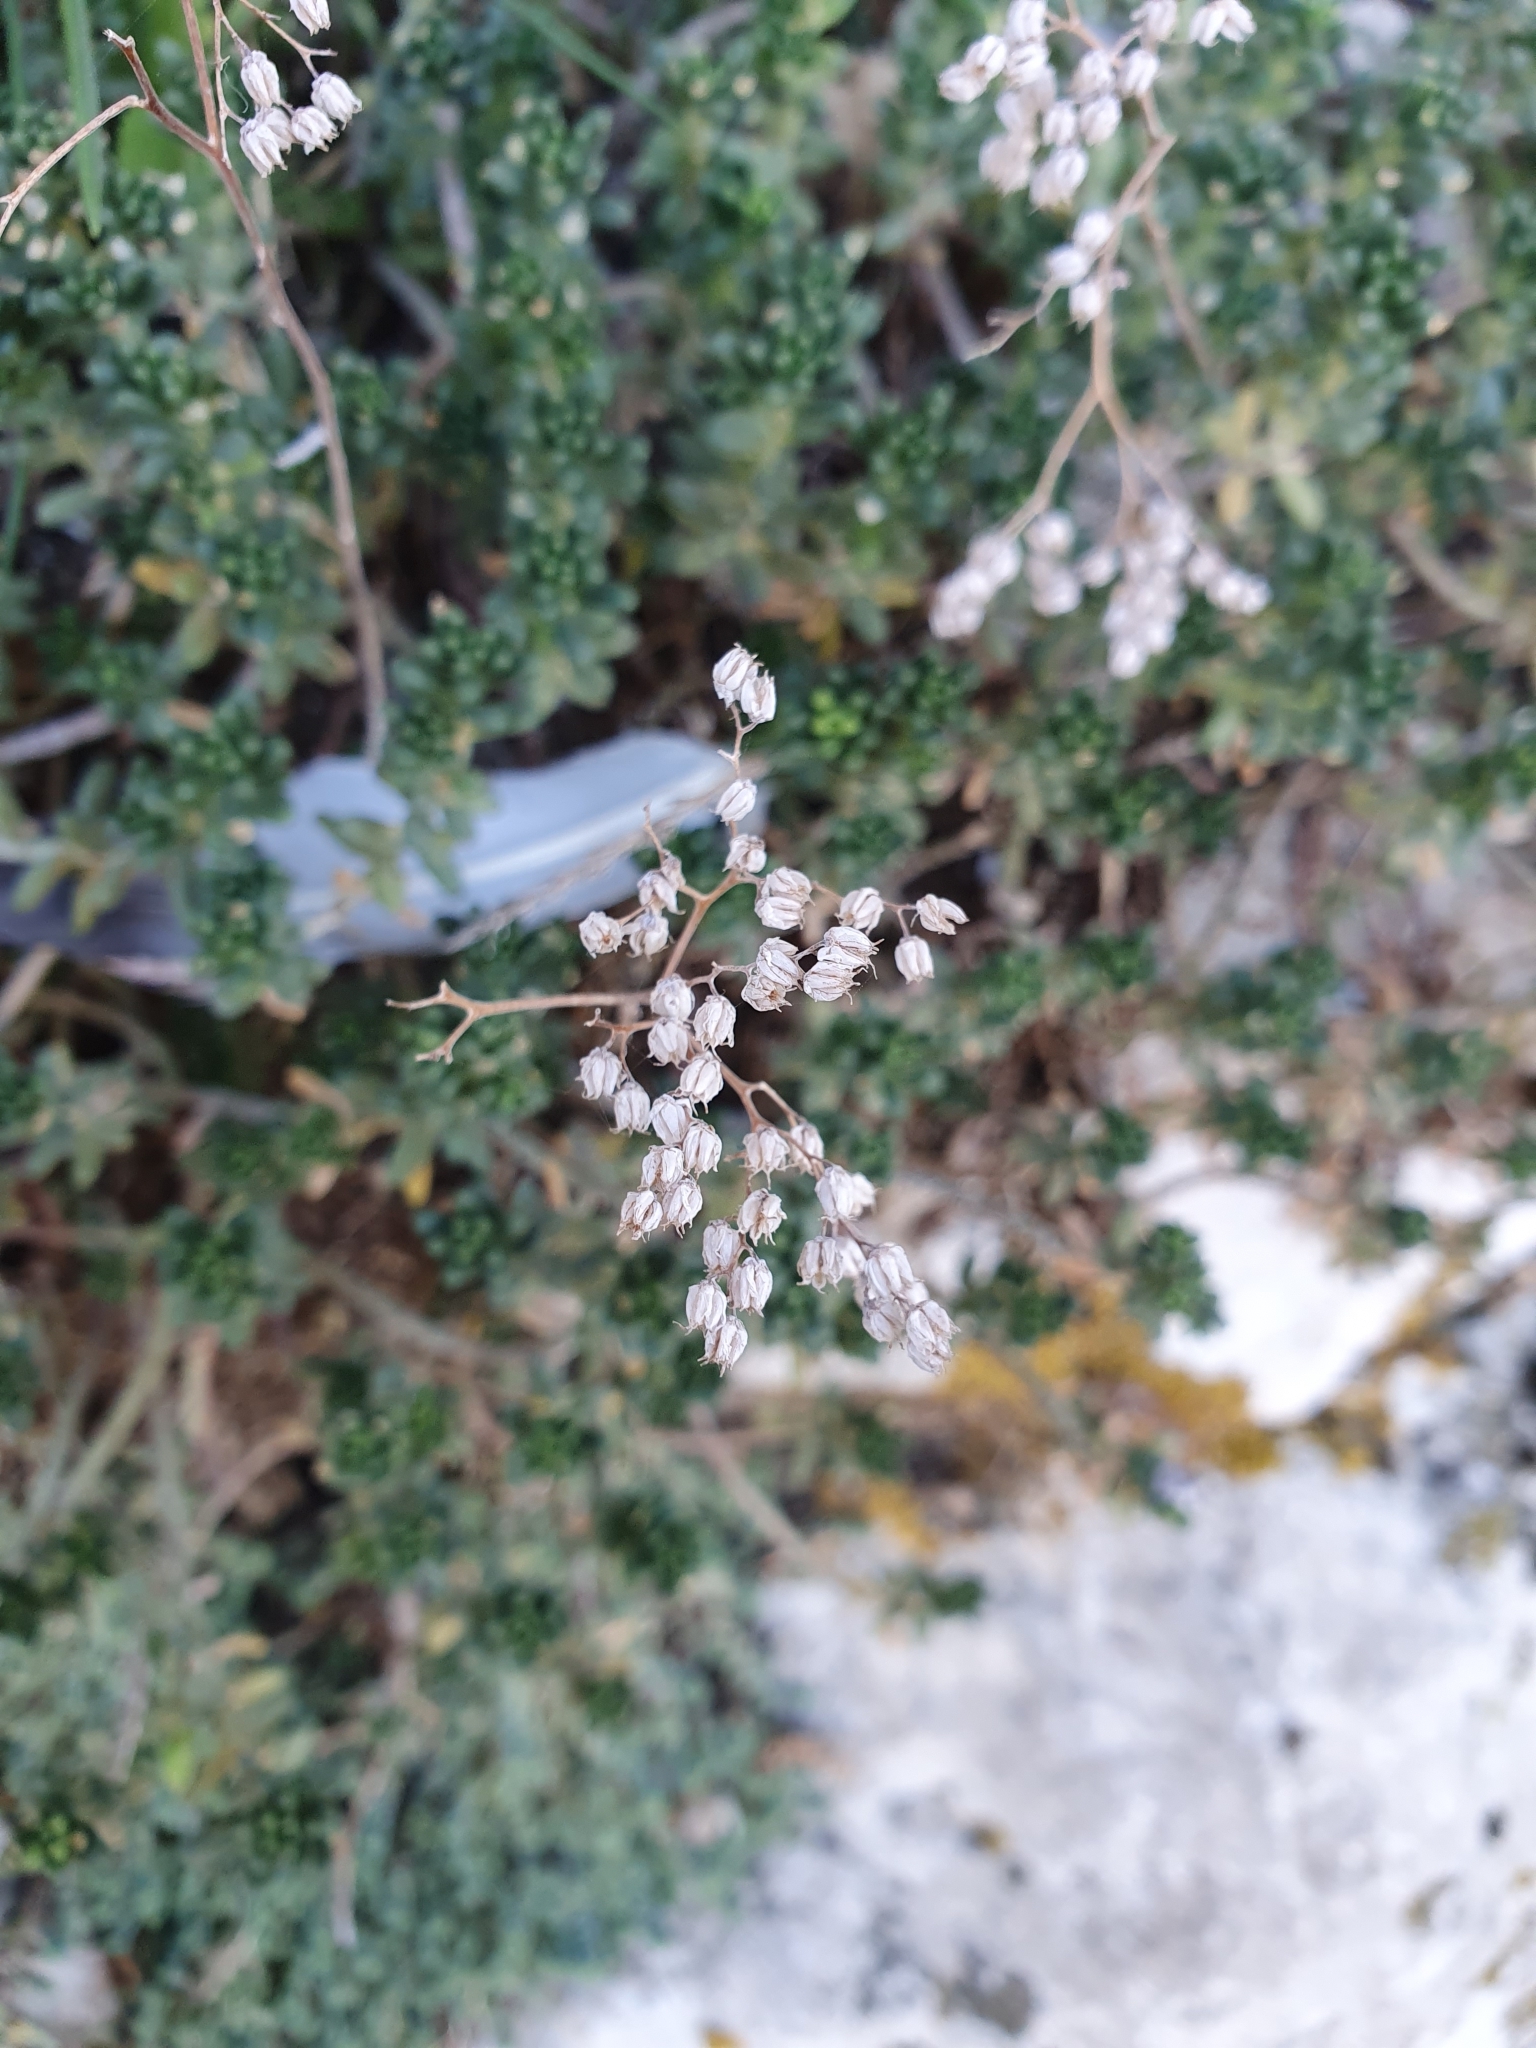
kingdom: Plantae
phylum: Tracheophyta
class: Magnoliopsida
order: Saxifragales
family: Crassulaceae
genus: Sedum
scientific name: Sedum album
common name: White stonecrop
